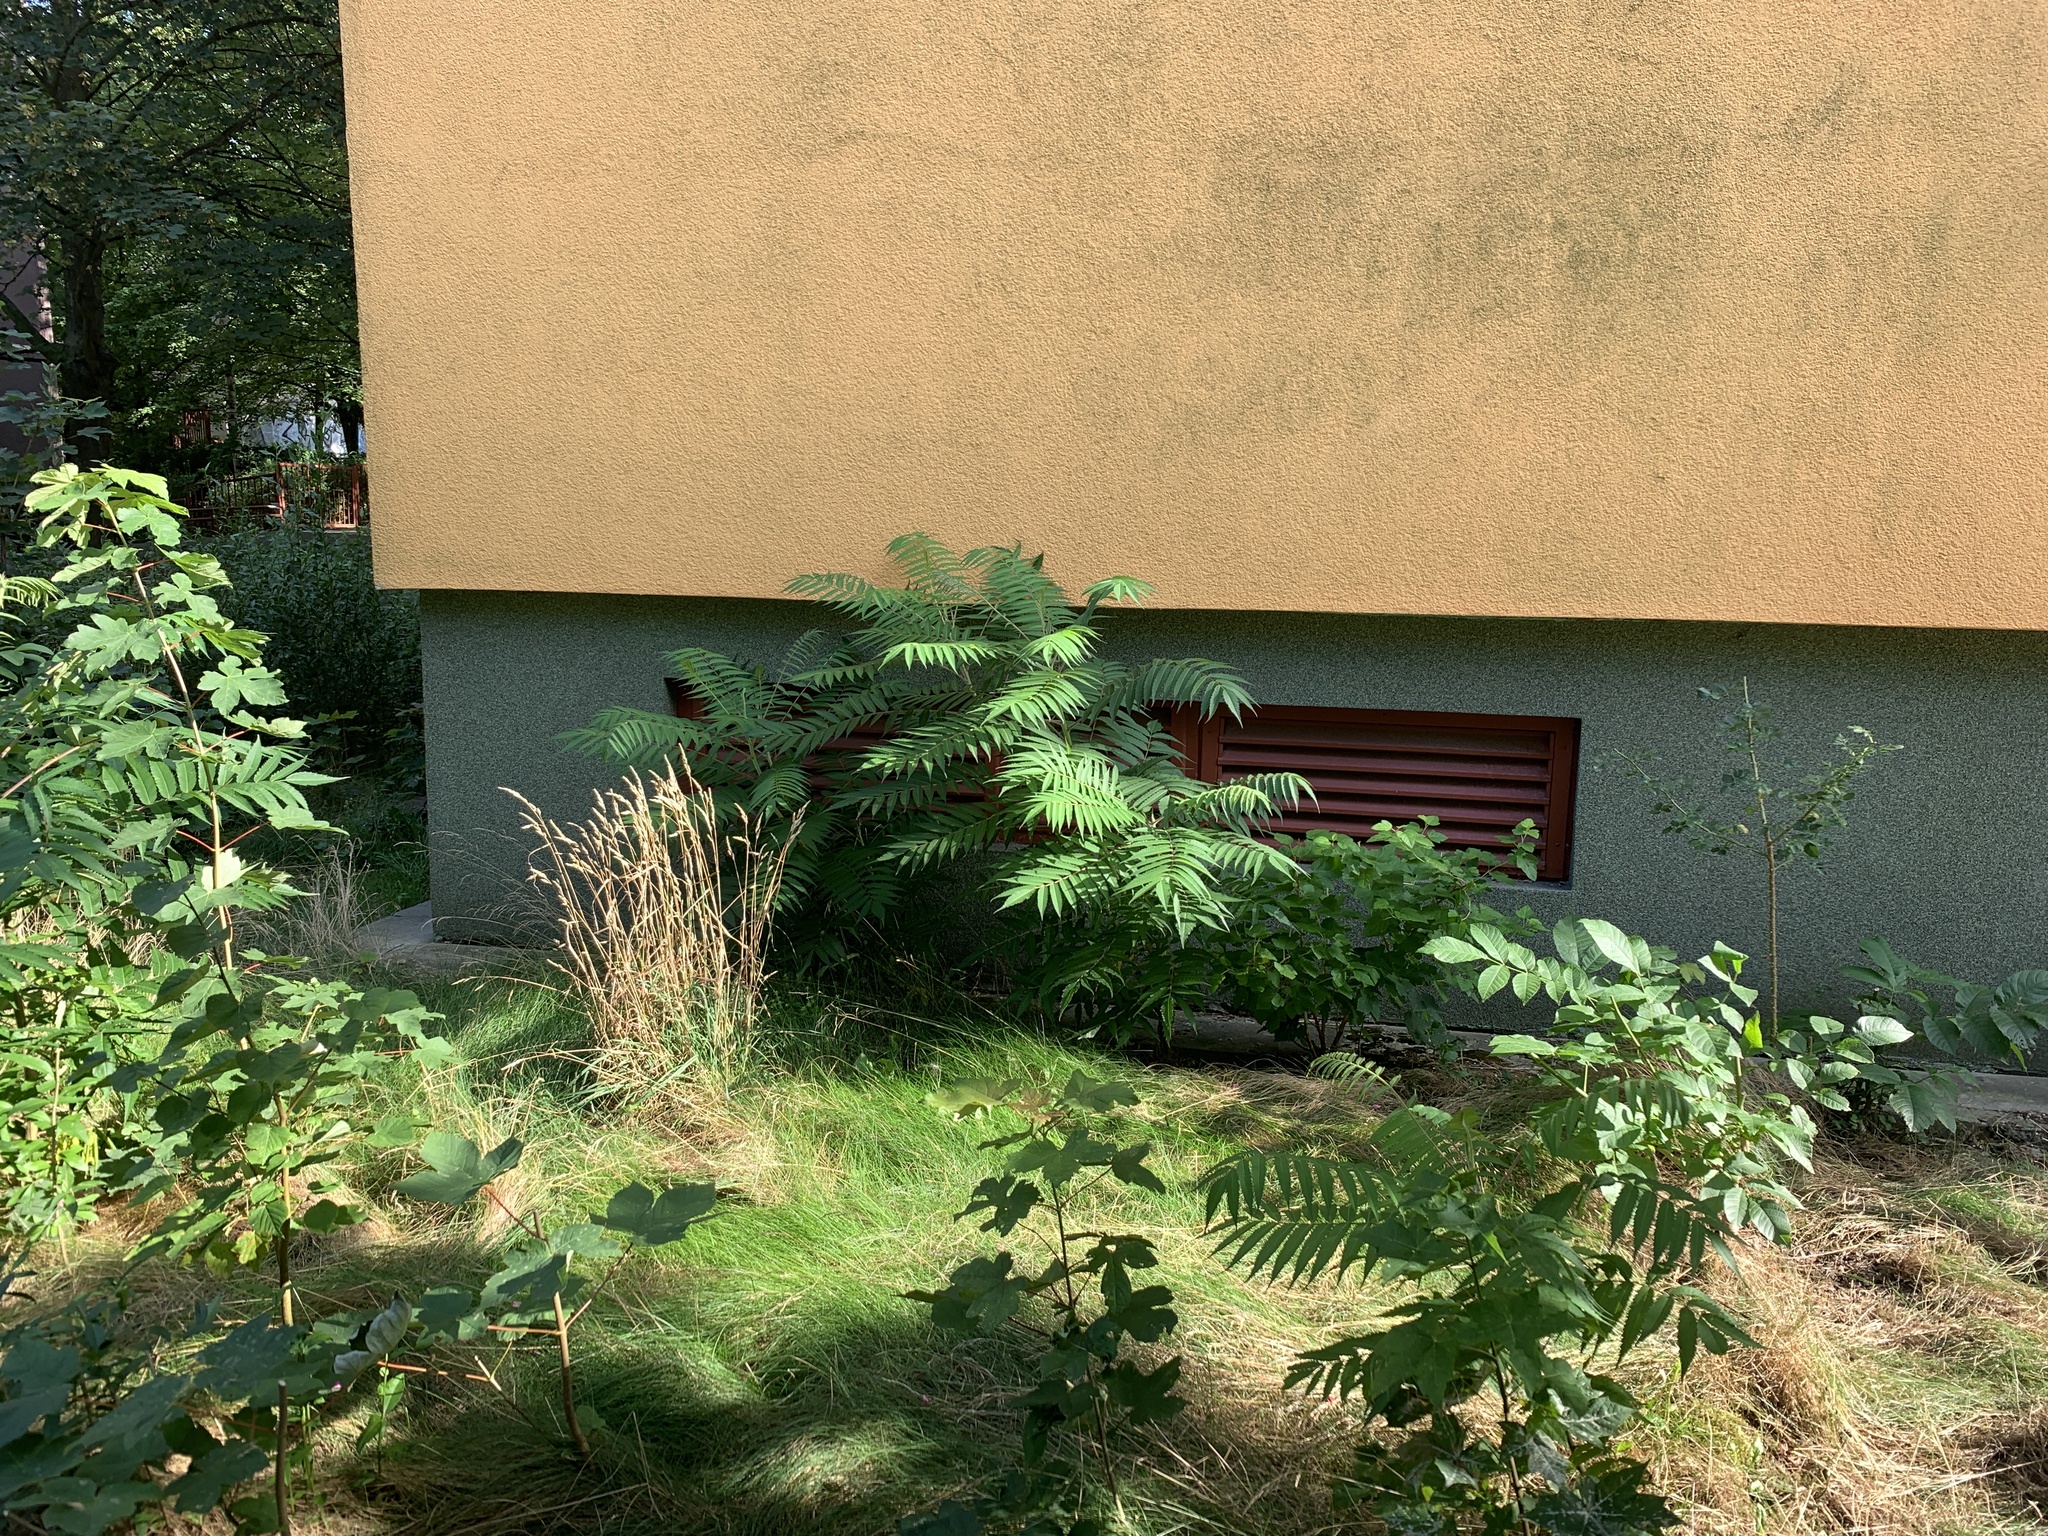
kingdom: Plantae
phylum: Tracheophyta
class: Magnoliopsida
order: Sapindales
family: Anacardiaceae
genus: Rhus
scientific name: Rhus typhina
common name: Staghorn sumac
